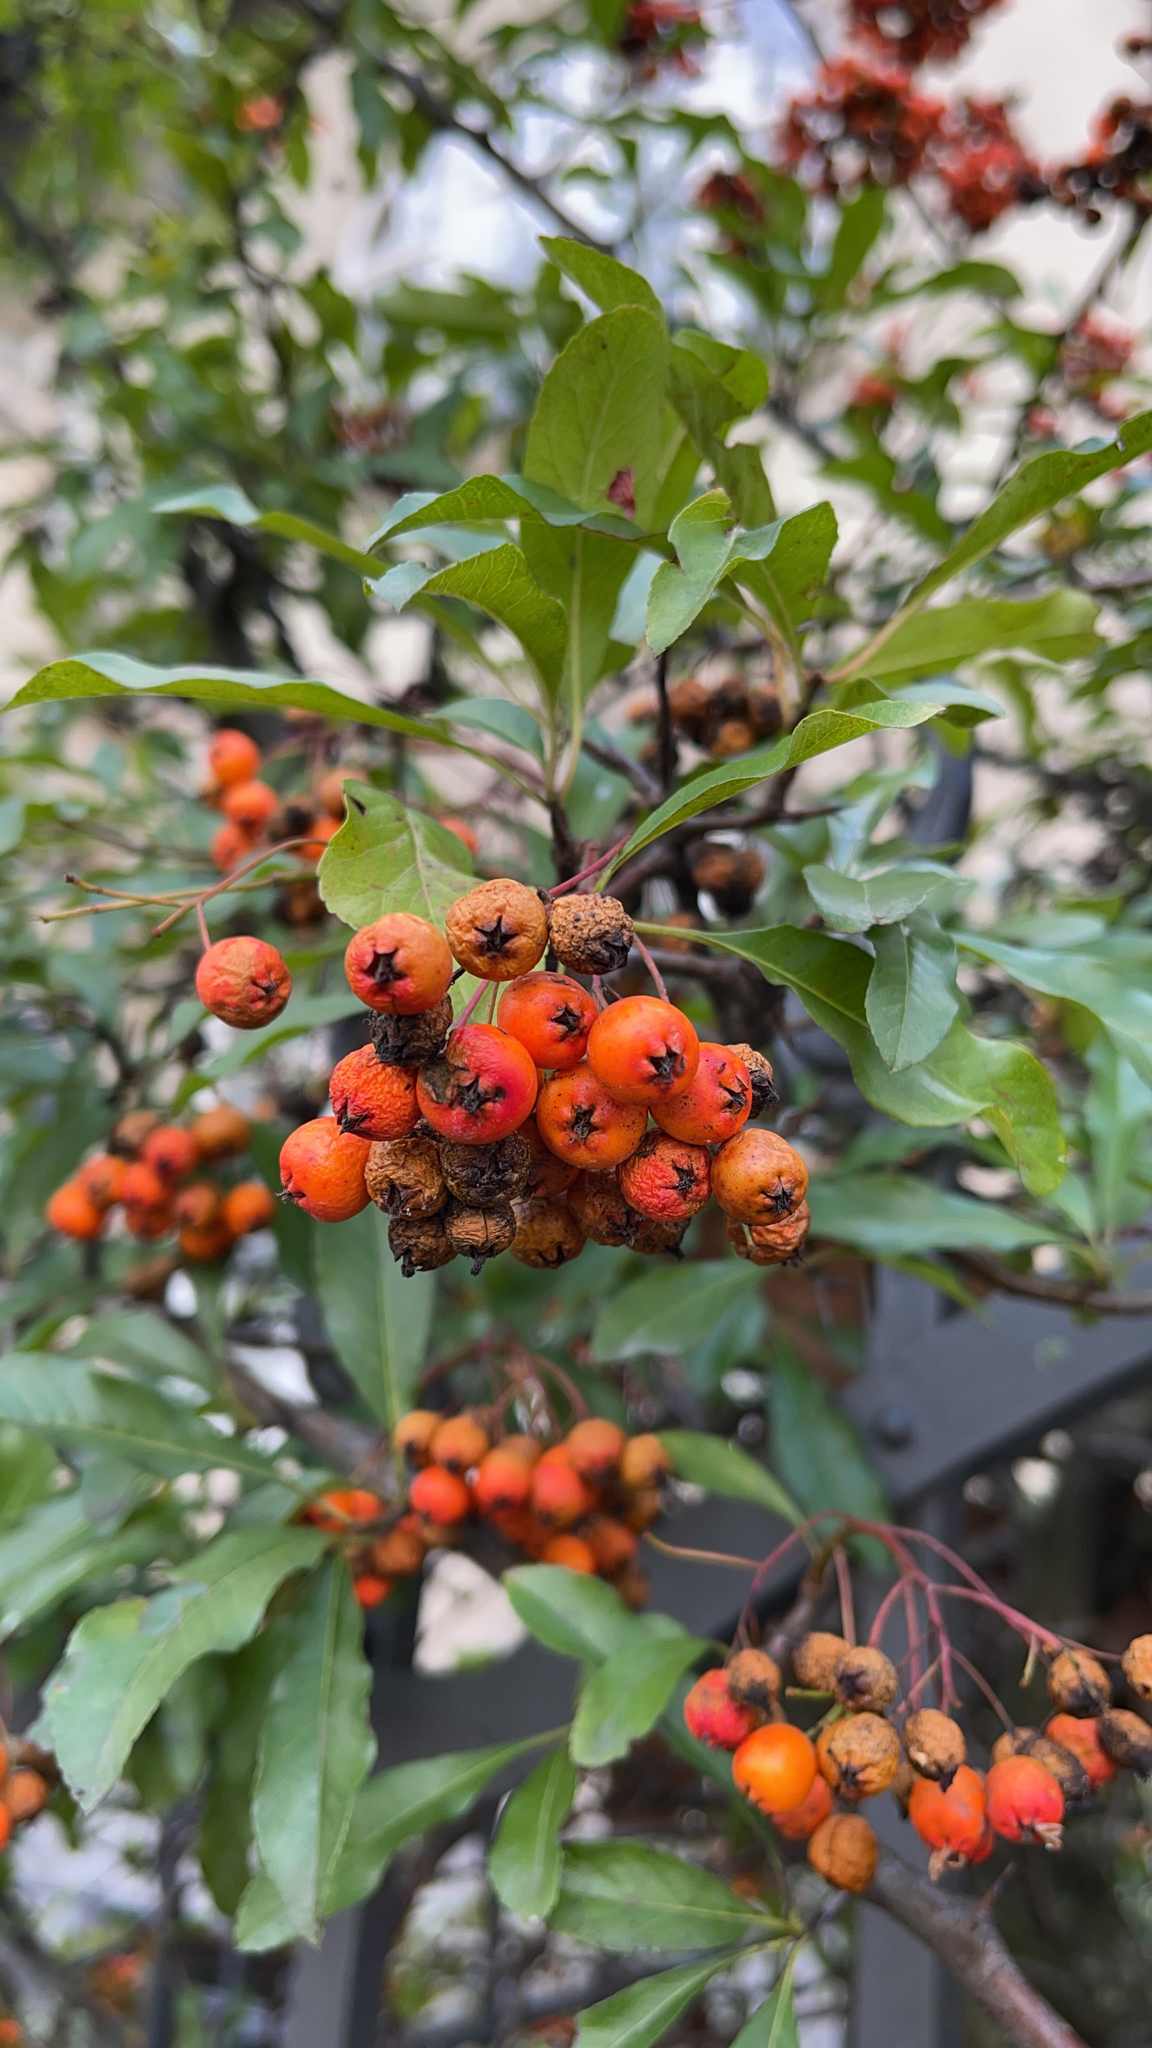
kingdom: Plantae
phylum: Tracheophyta
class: Magnoliopsida
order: Rosales
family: Rosaceae
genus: Pyracantha
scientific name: Pyracantha coccinea
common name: Firethorn
